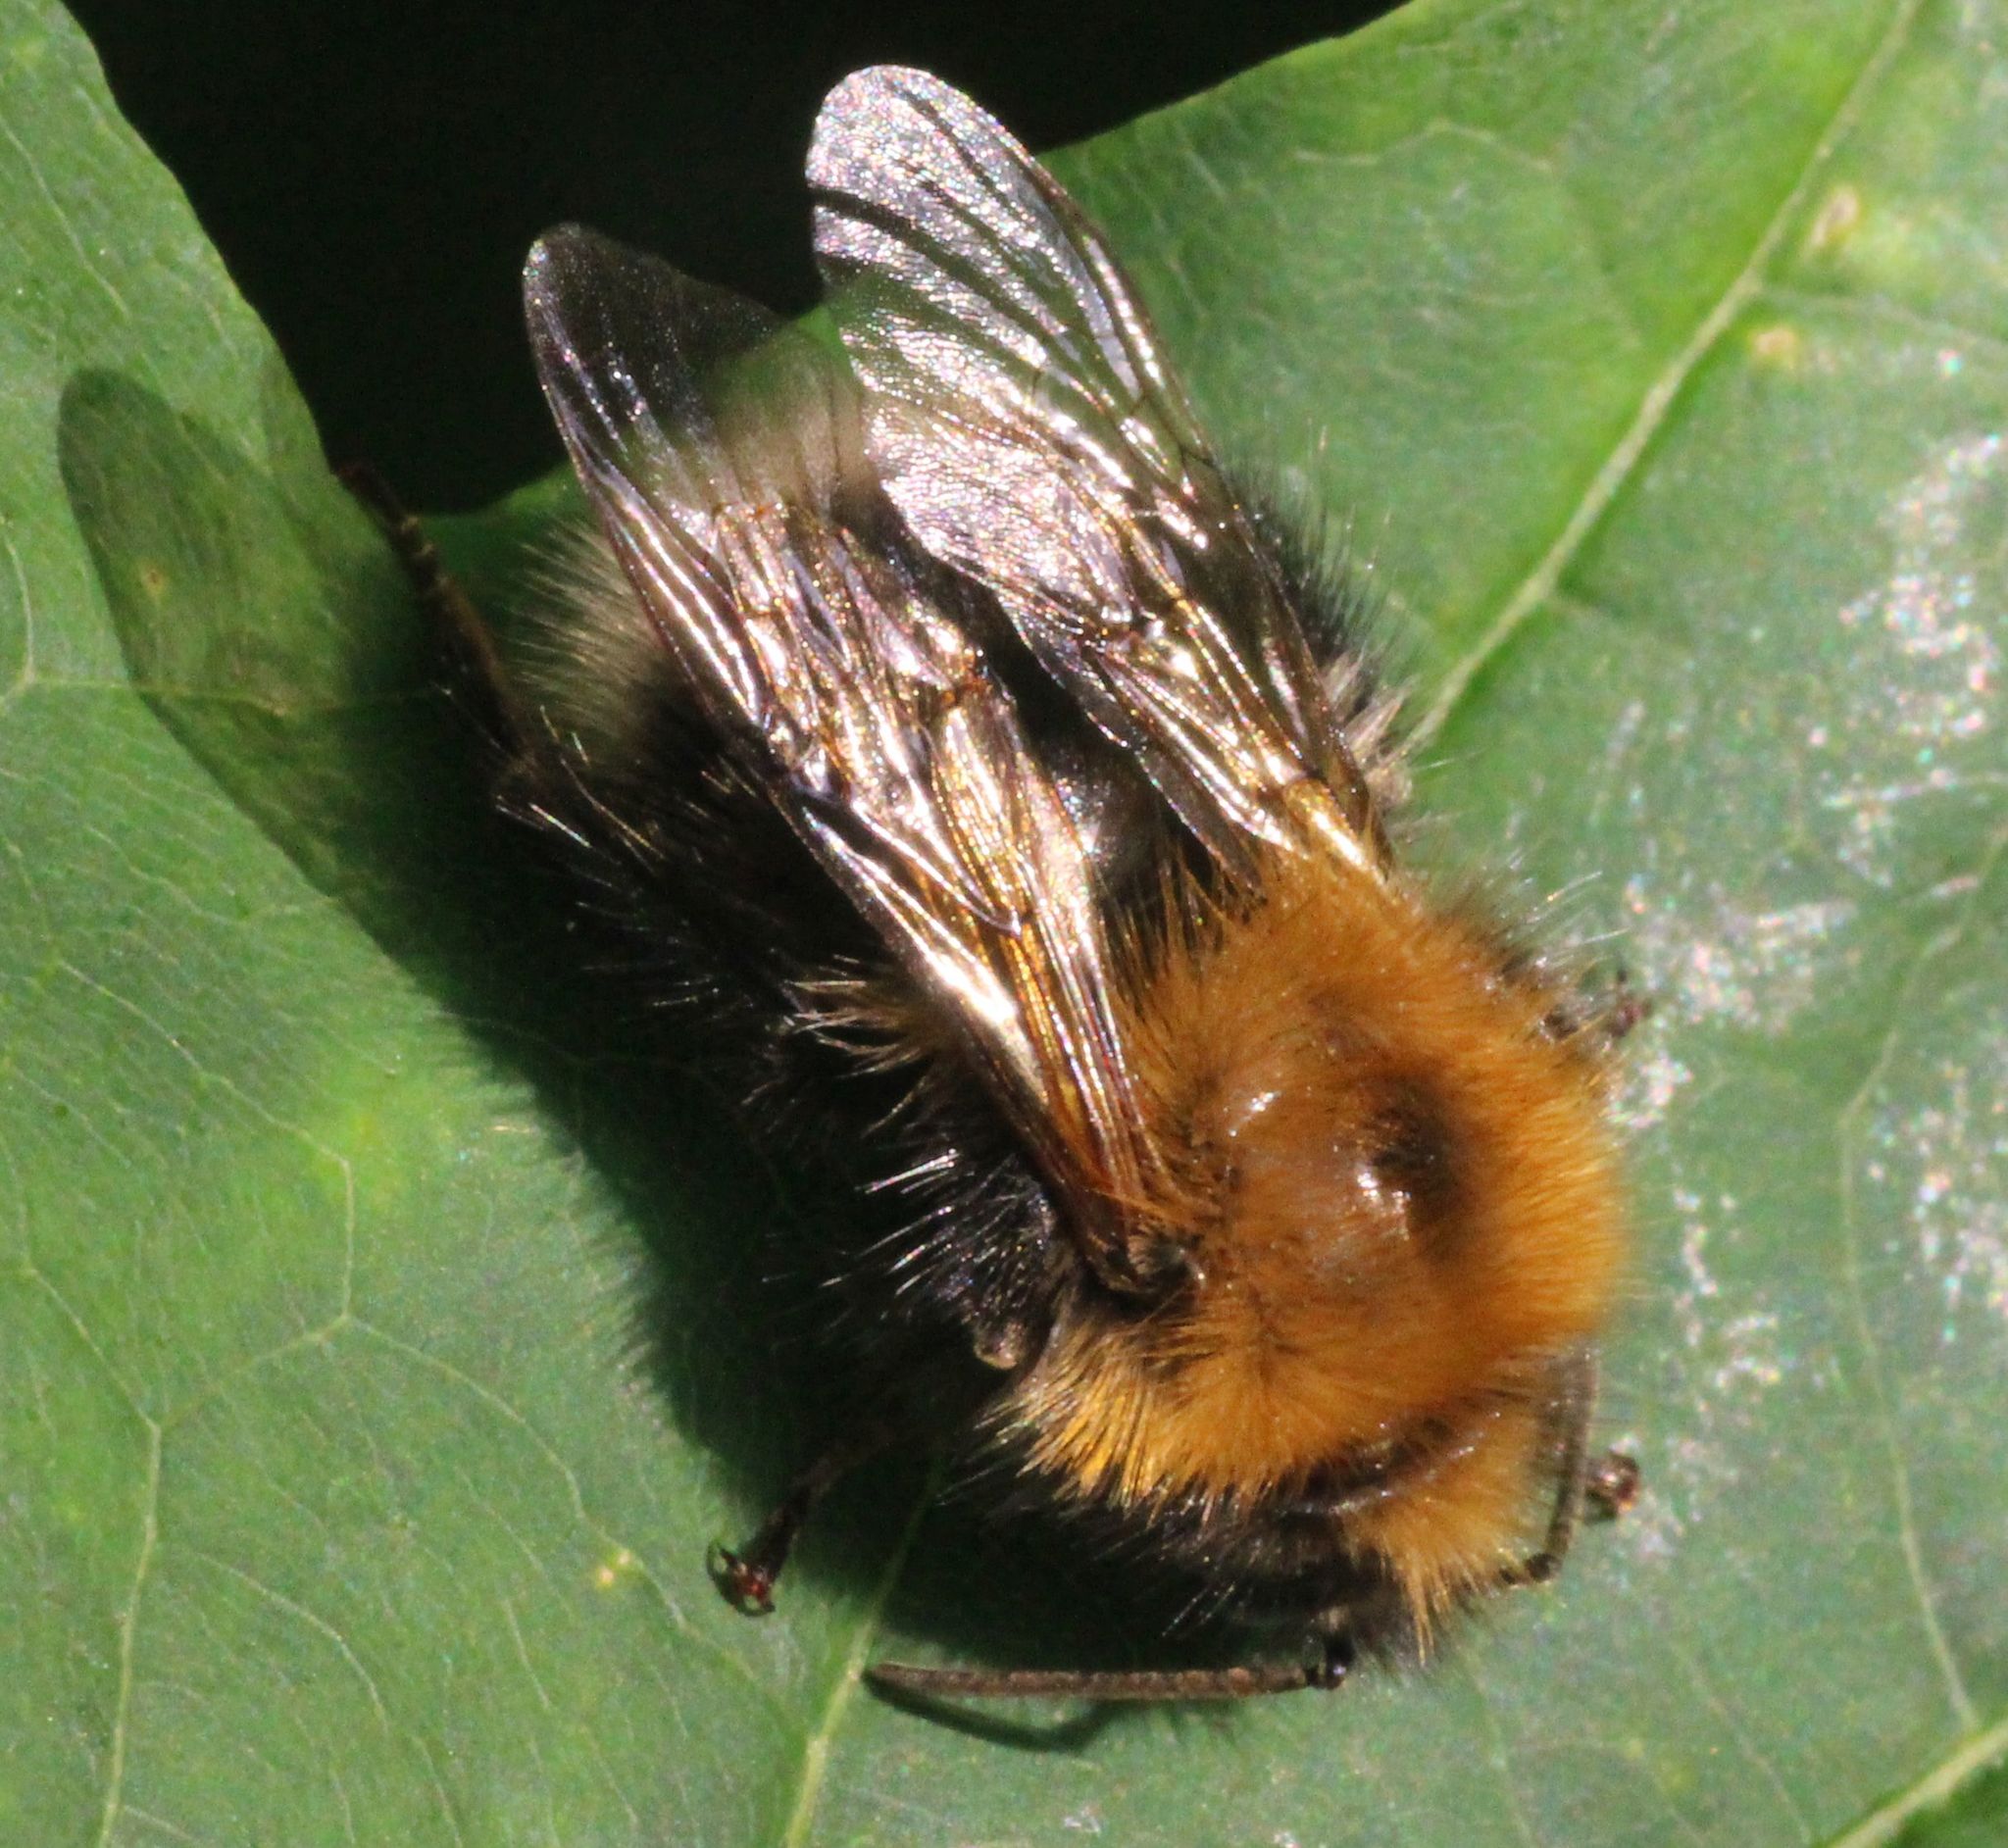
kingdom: Animalia
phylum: Arthropoda
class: Insecta
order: Hymenoptera
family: Apidae
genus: Bombus
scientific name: Bombus hypnorum
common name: New garden bumblebee
